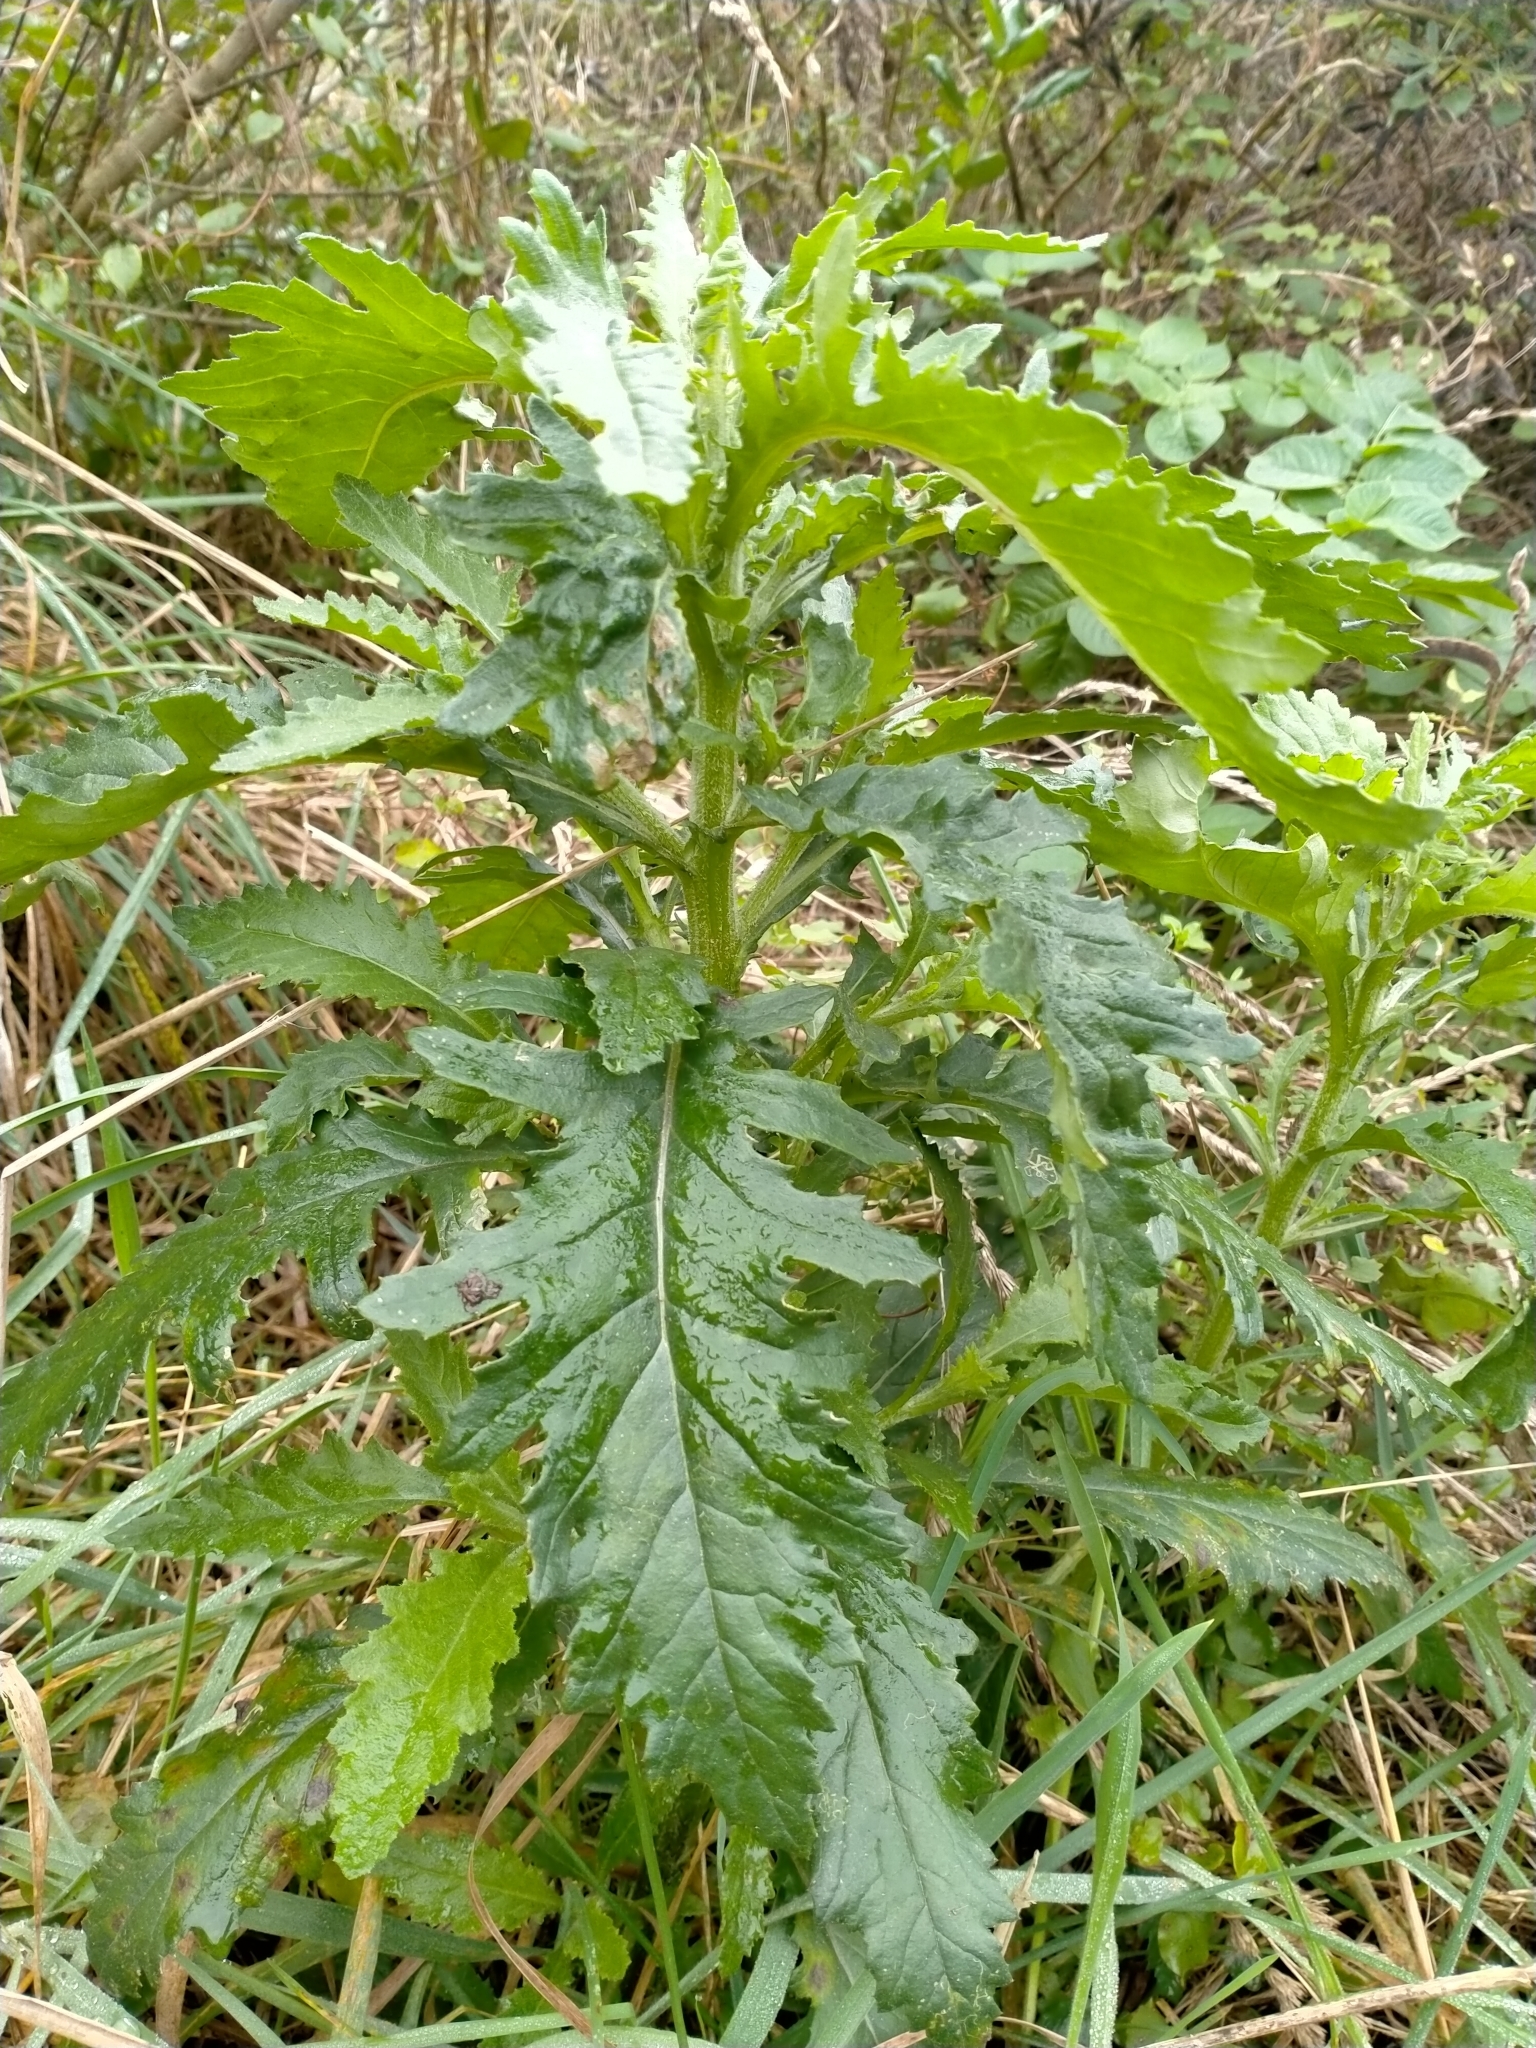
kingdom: Plantae
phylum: Tracheophyta
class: Magnoliopsida
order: Asterales
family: Asteraceae
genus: Senecio
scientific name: Senecio biserratus
